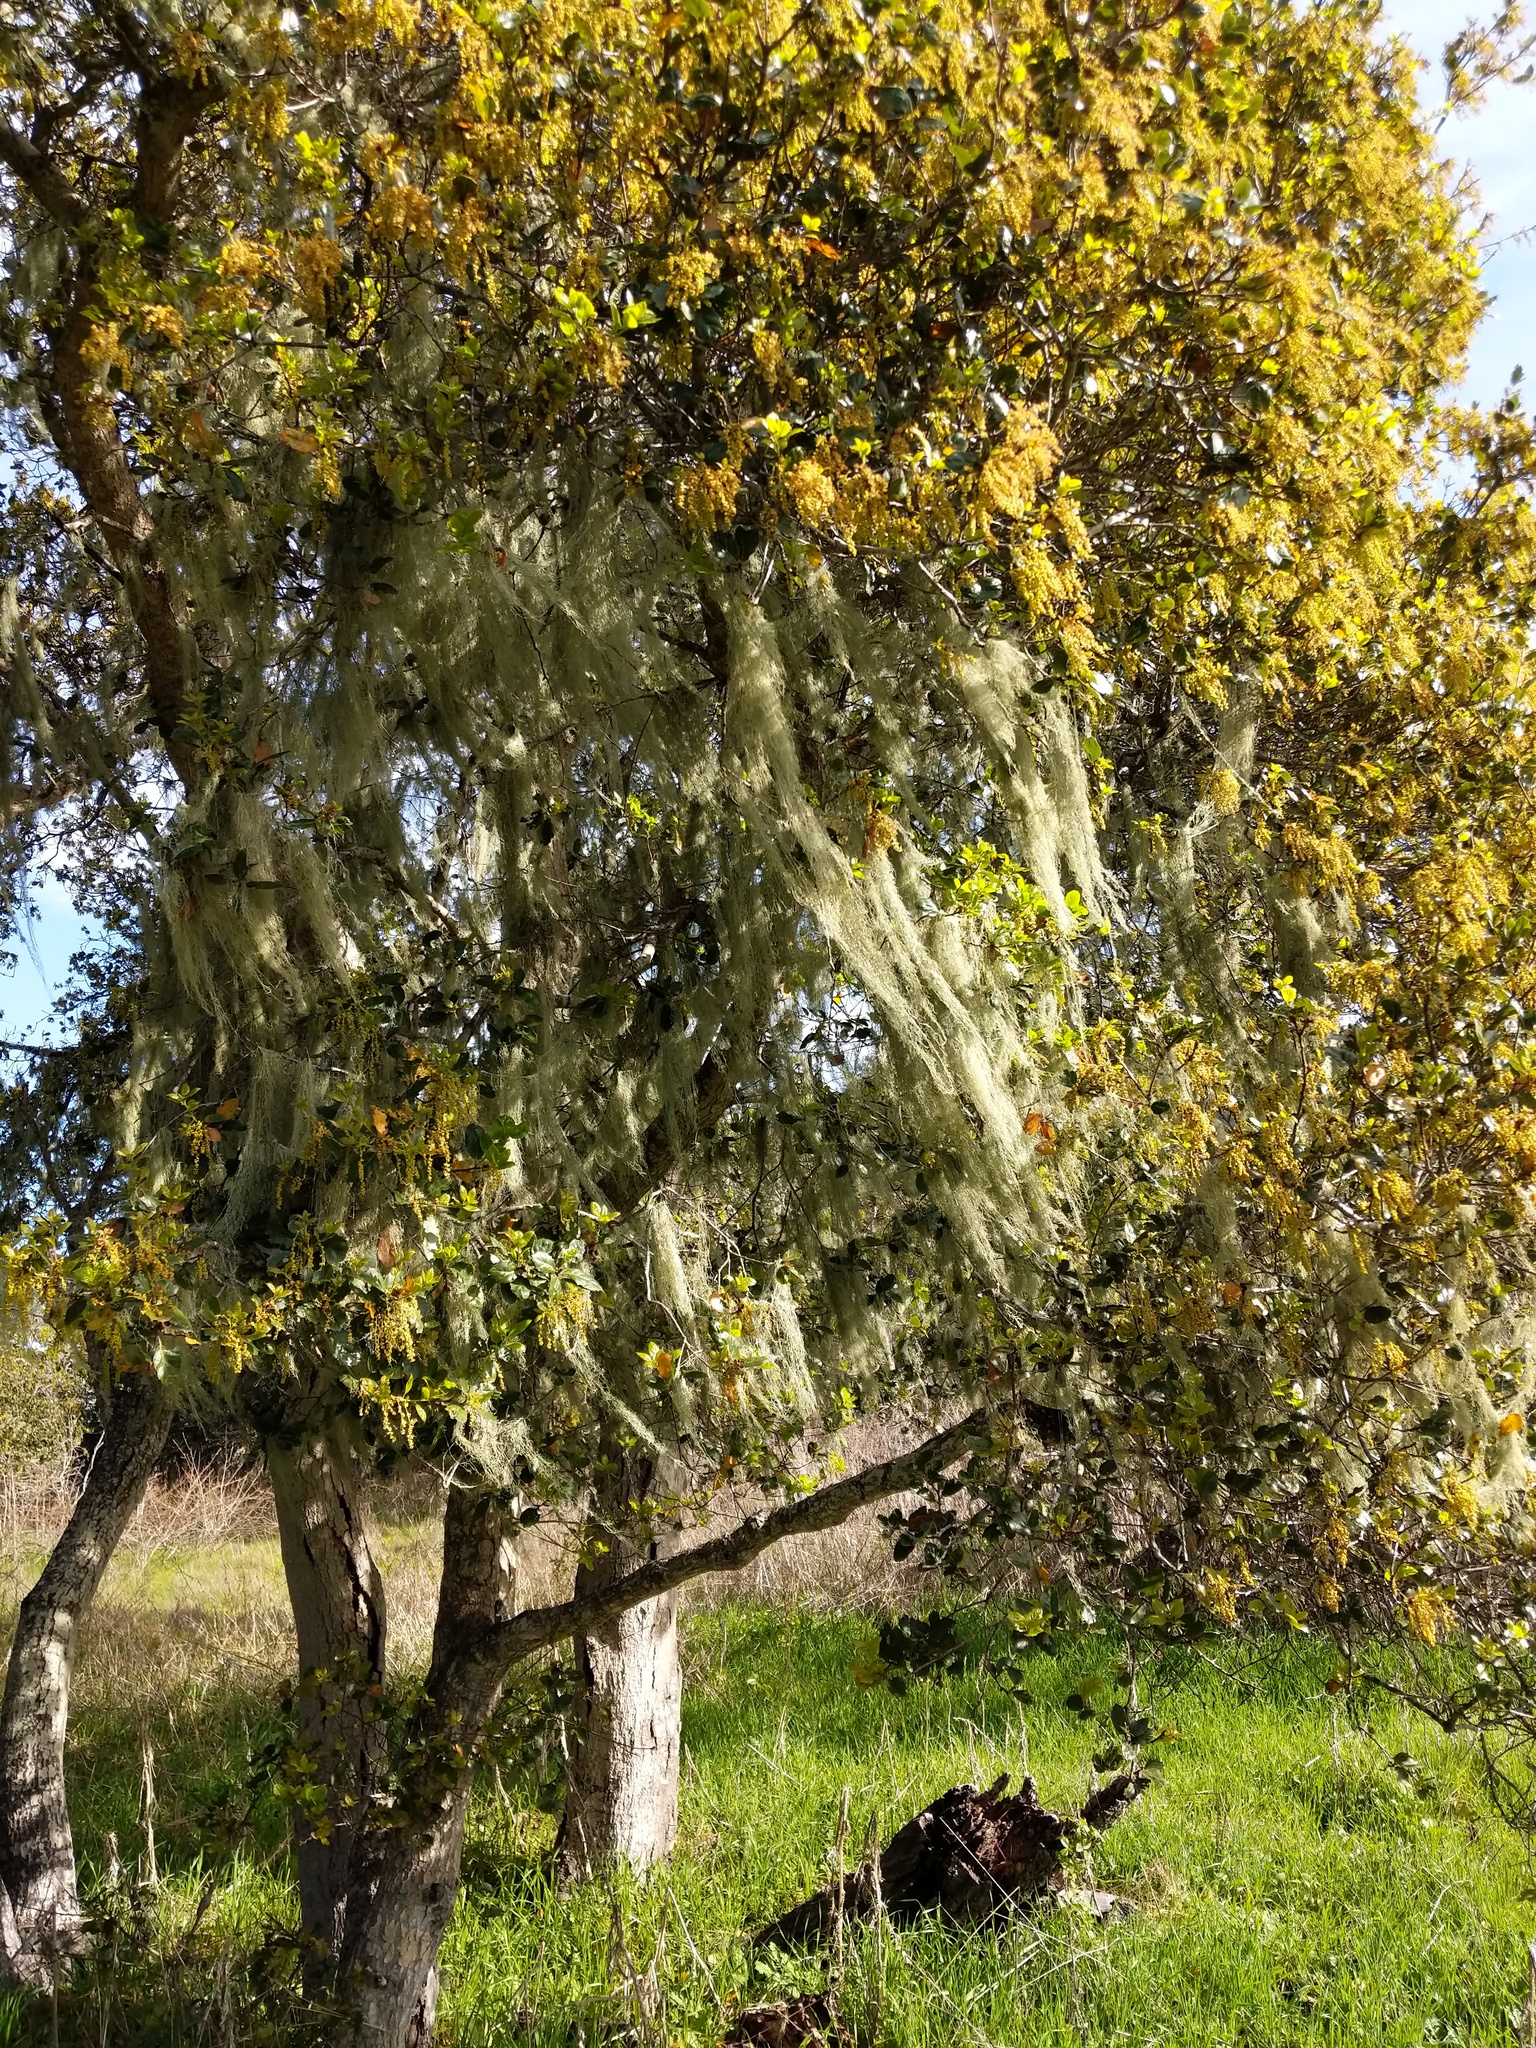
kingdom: Plantae
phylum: Tracheophyta
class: Magnoliopsida
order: Fagales
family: Fagaceae
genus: Quercus
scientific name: Quercus agrifolia
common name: California live oak
